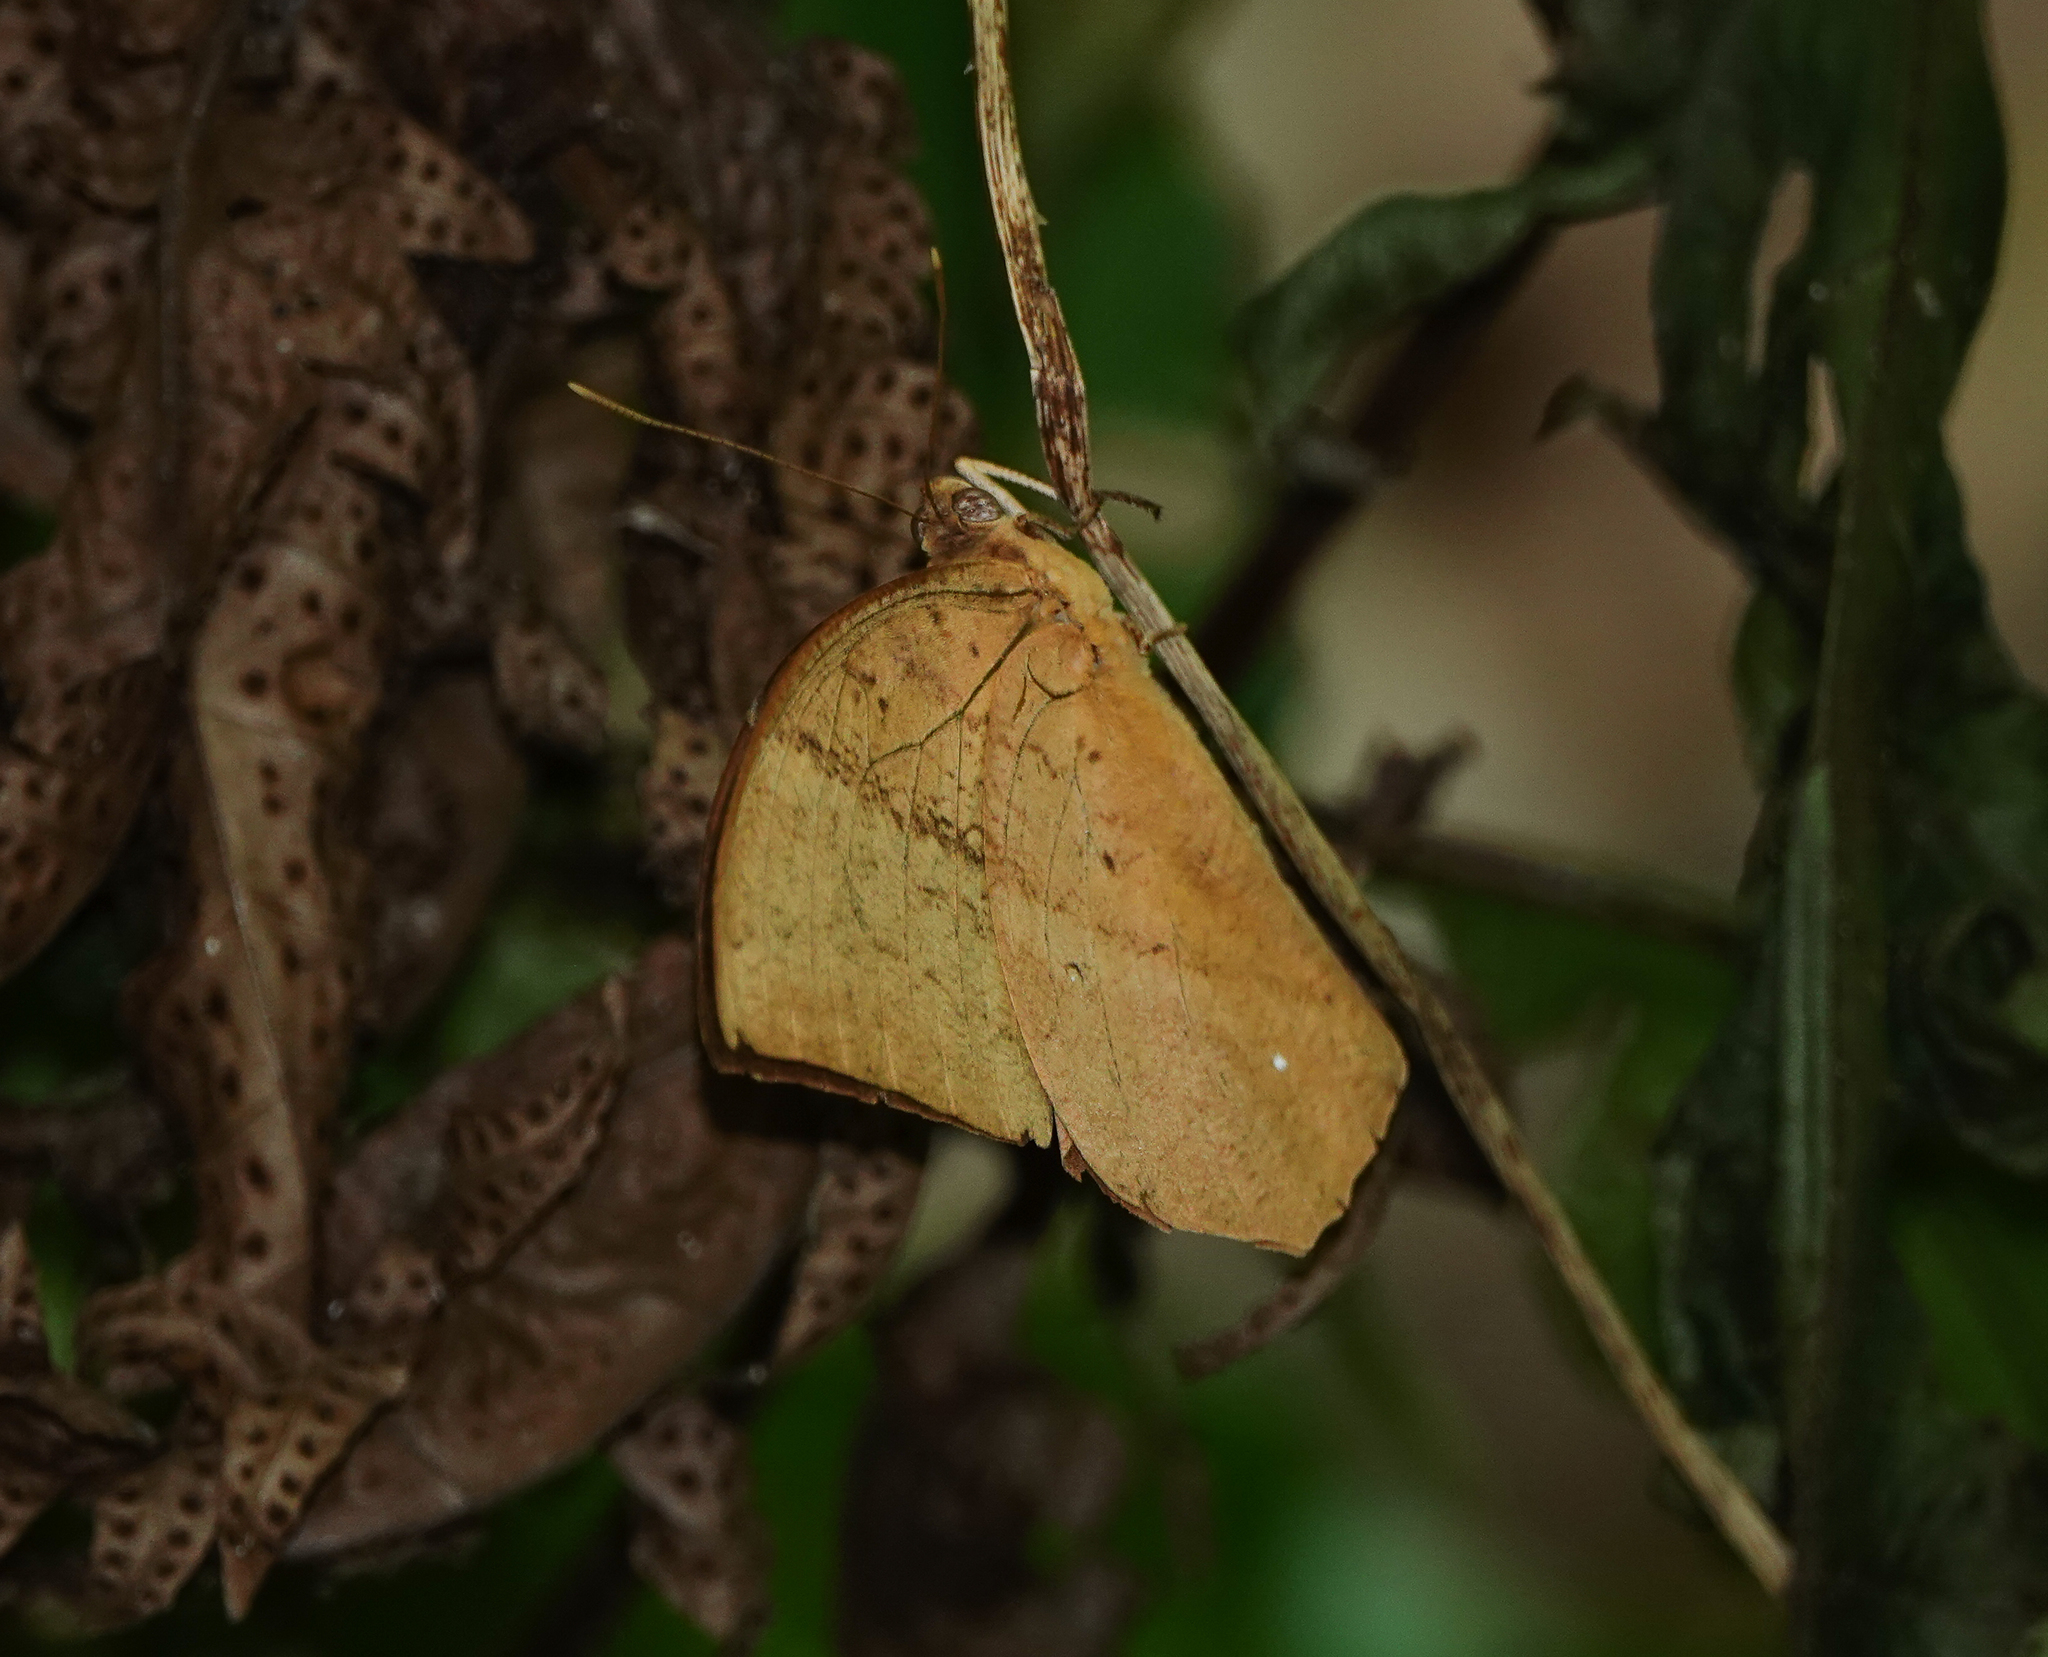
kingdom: Animalia
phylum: Arthropoda
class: Insecta
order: Lepidoptera
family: Nymphalidae
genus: Discophora
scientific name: Discophora sondaica
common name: Common duffer
